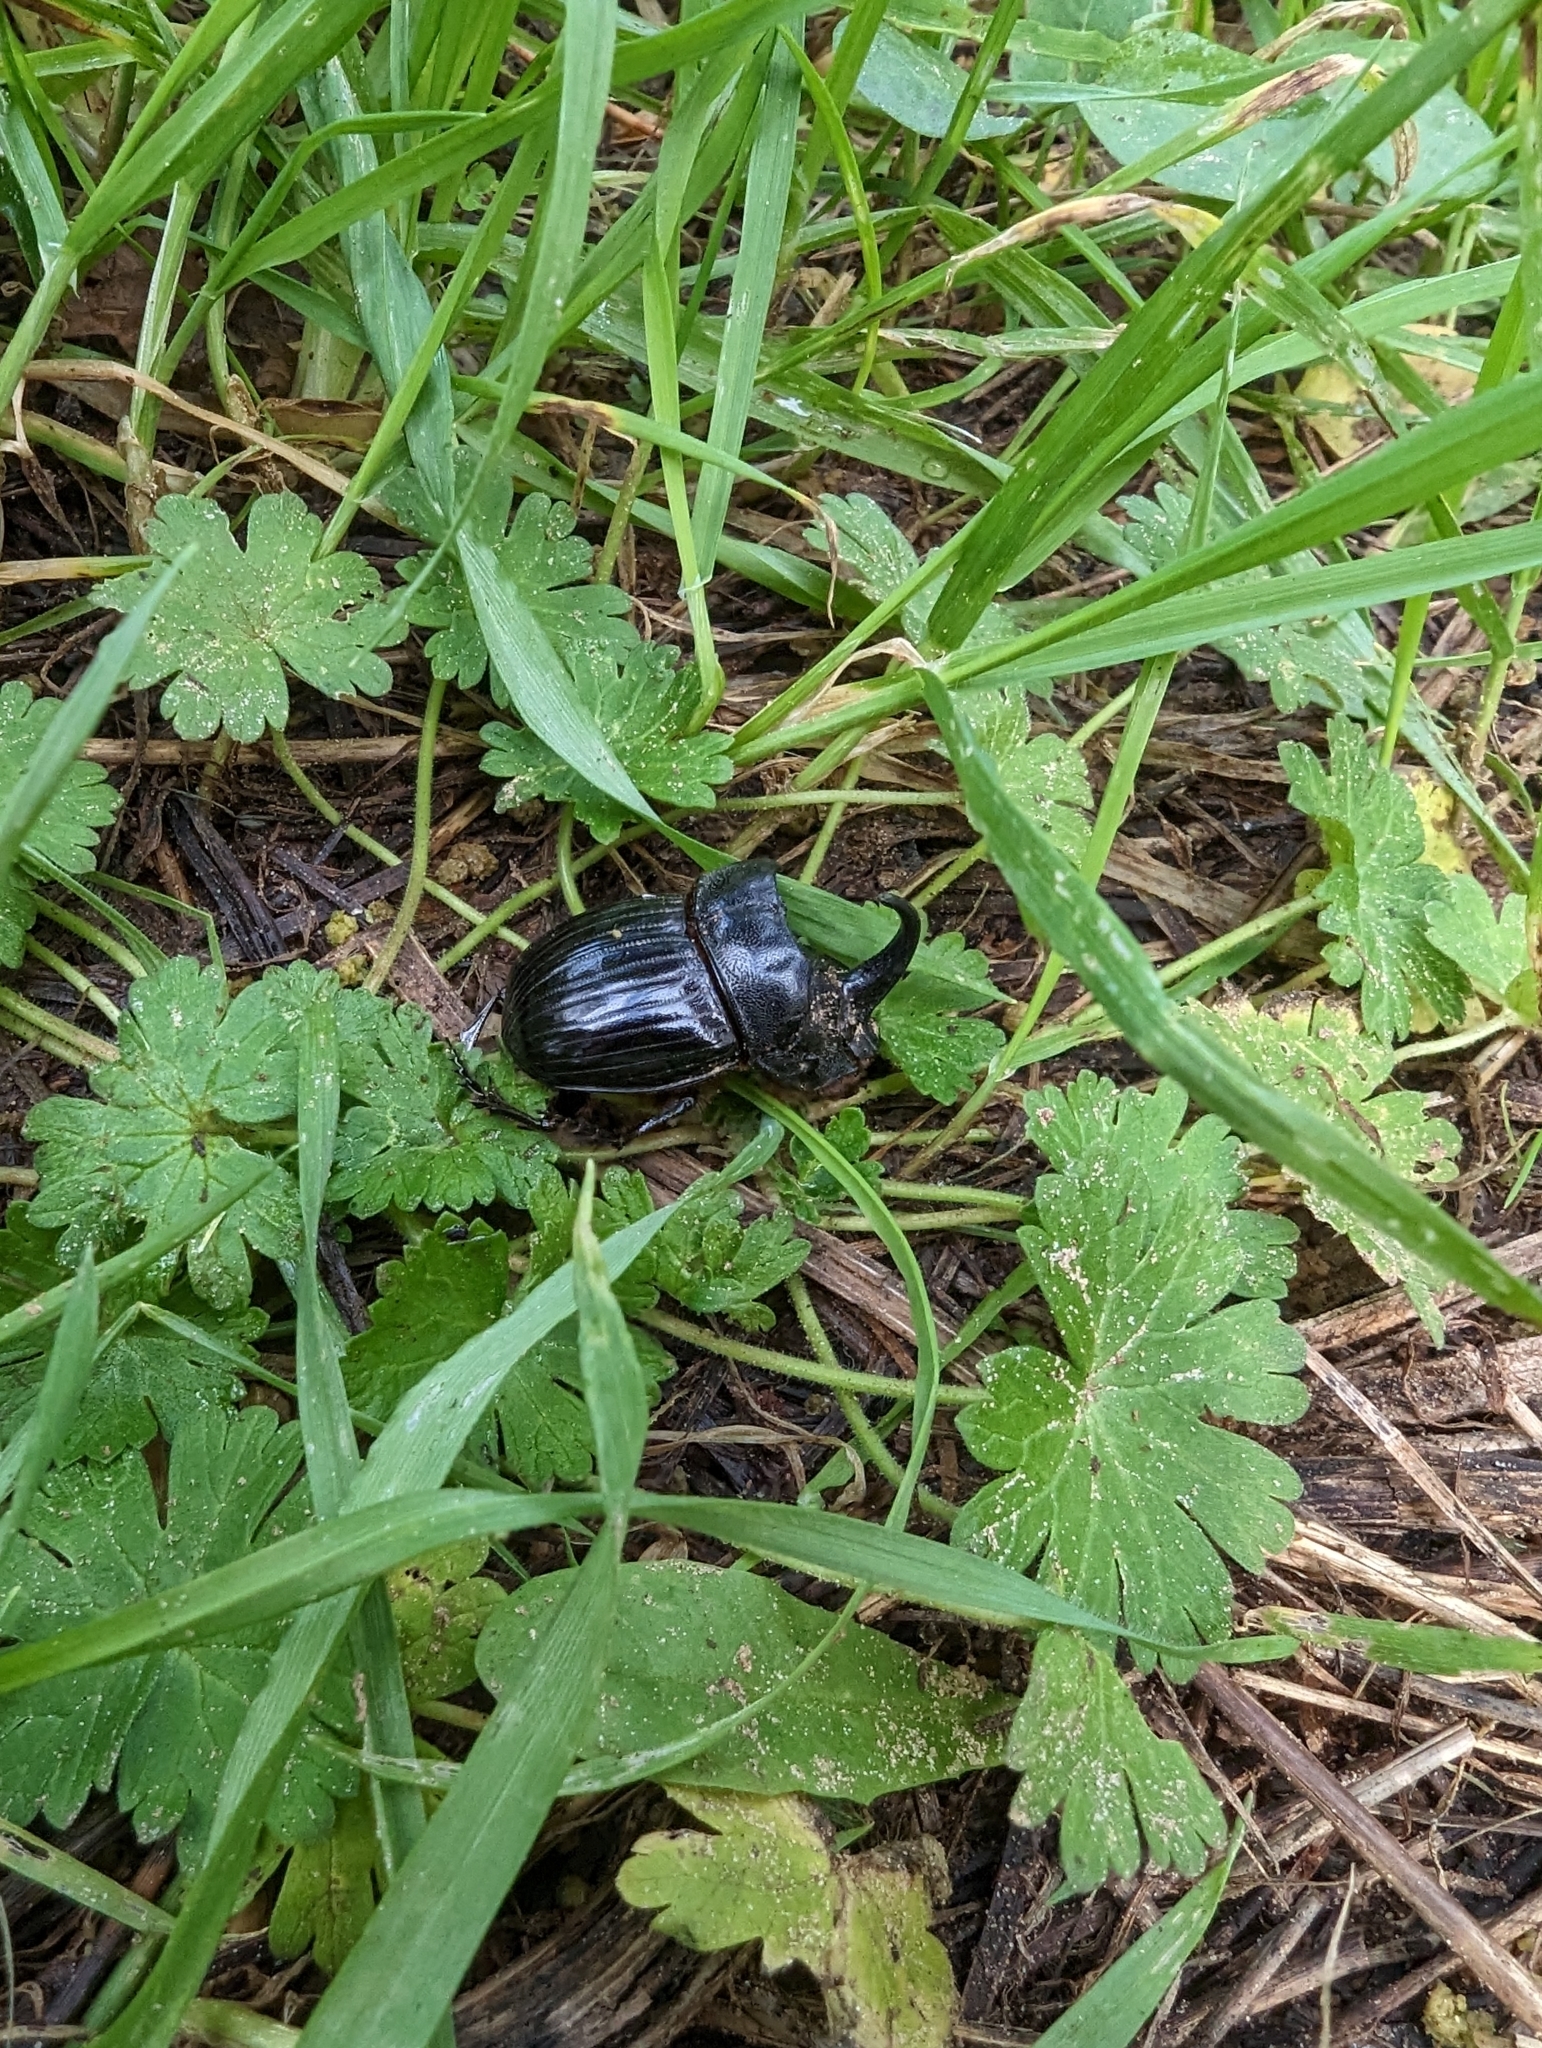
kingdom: Animalia
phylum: Arthropoda
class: Insecta
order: Coleoptera
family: Scarabaeidae
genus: Copris
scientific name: Copris hispanus
